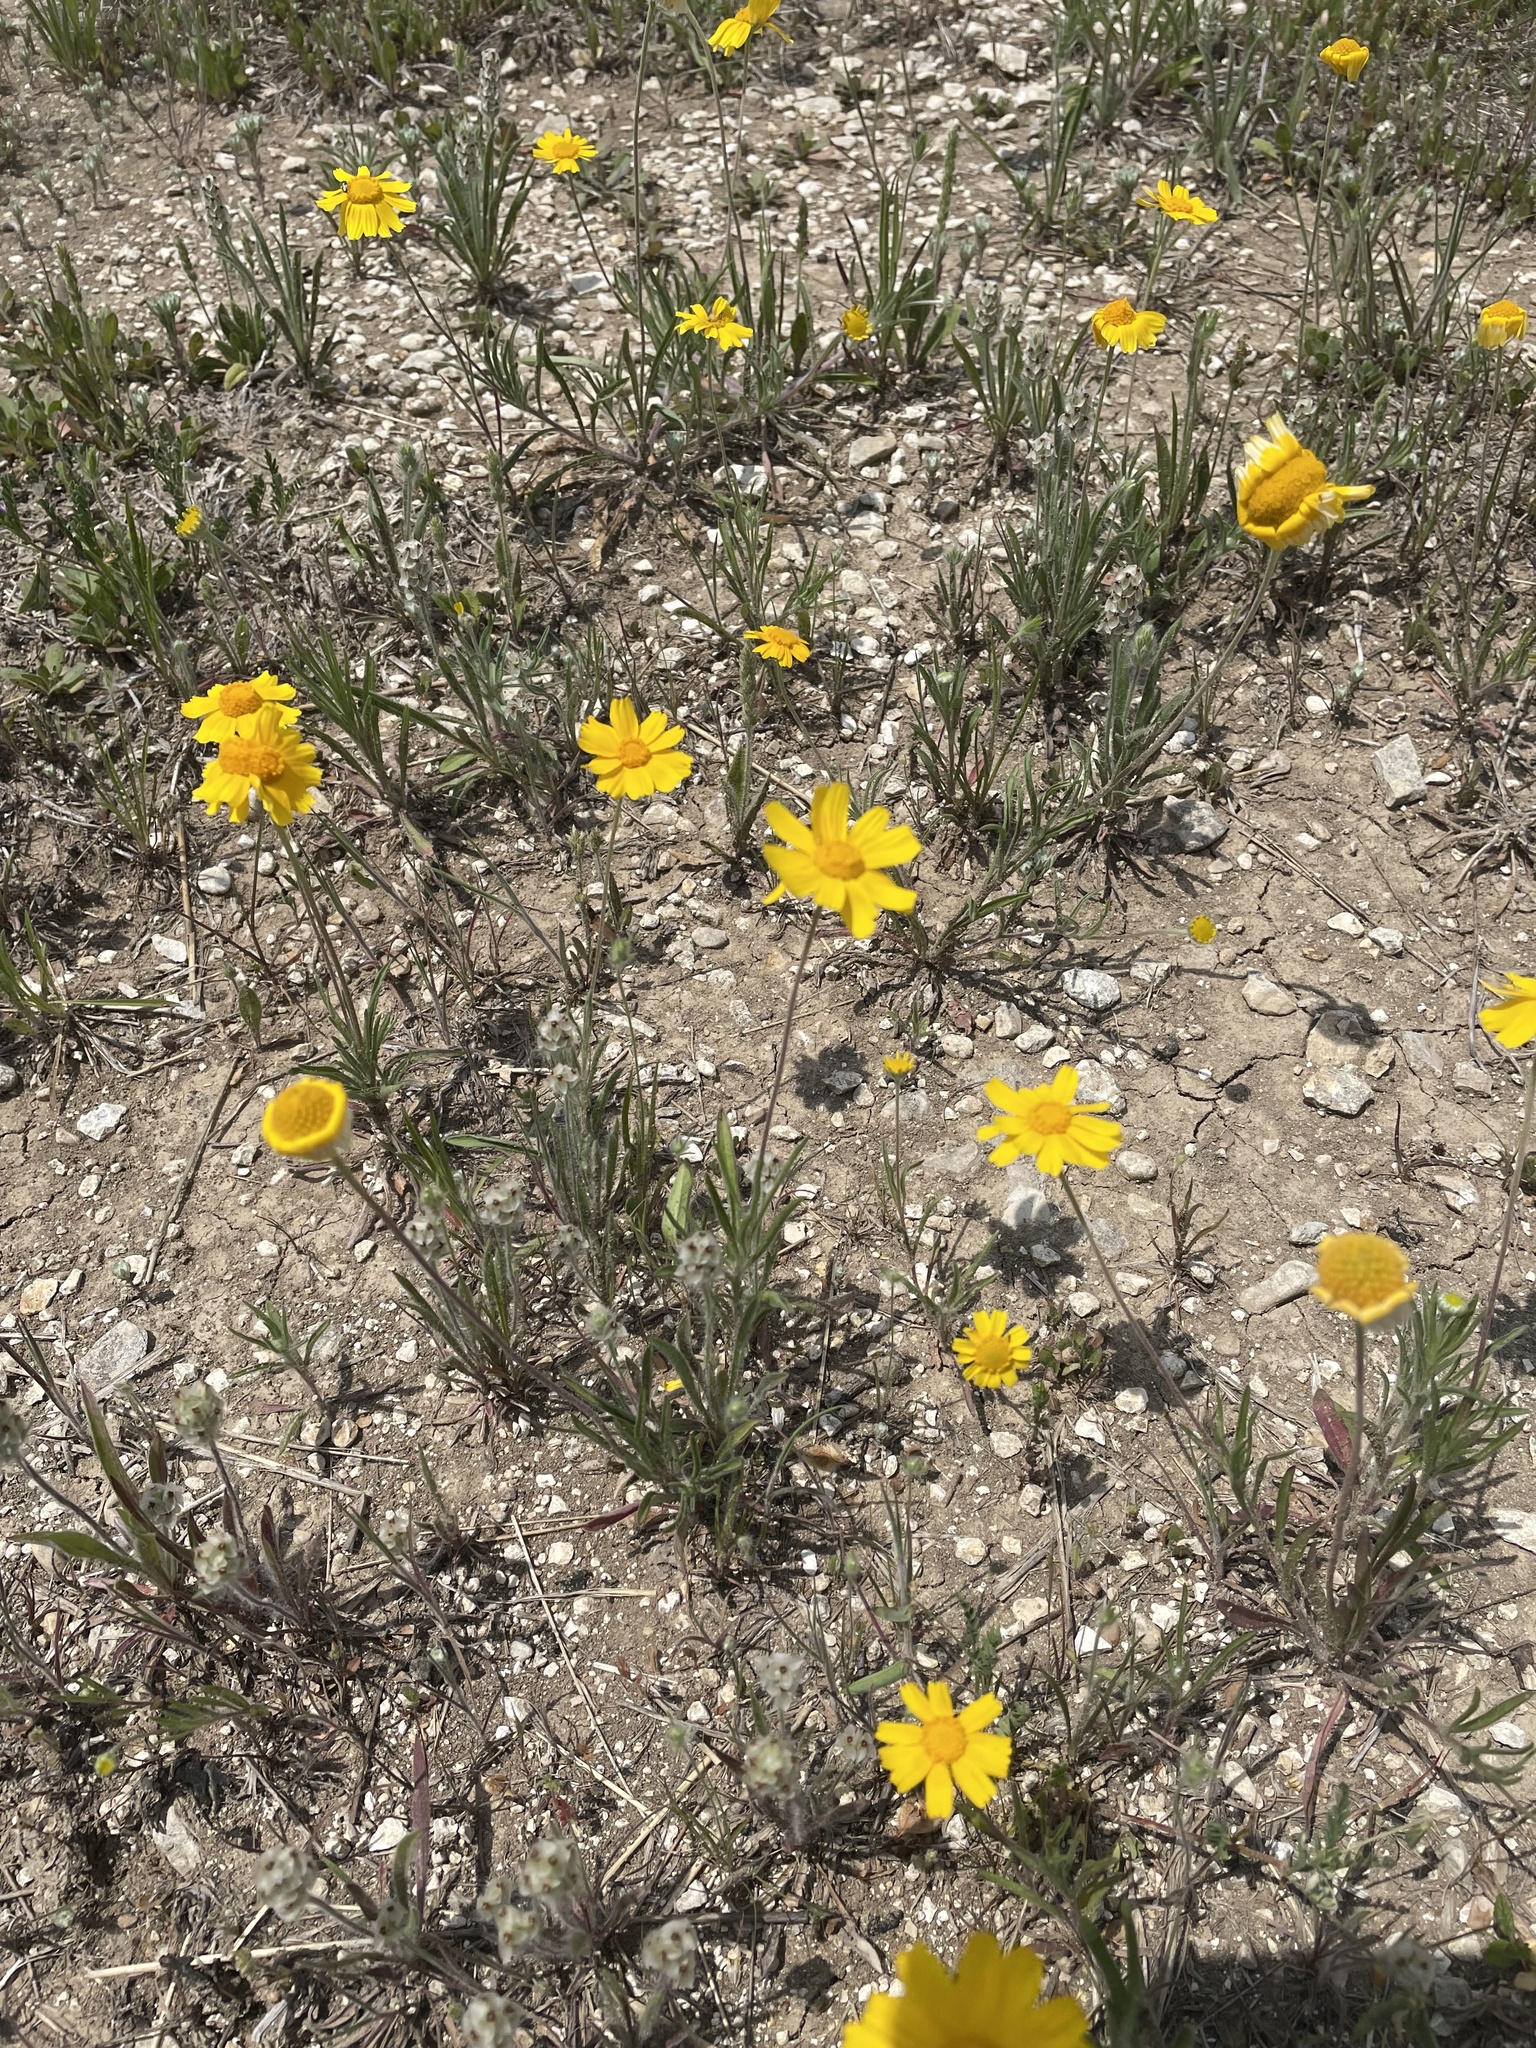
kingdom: Plantae
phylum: Tracheophyta
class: Magnoliopsida
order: Asterales
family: Asteraceae
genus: Tetraneuris
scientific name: Tetraneuris linearifolia
